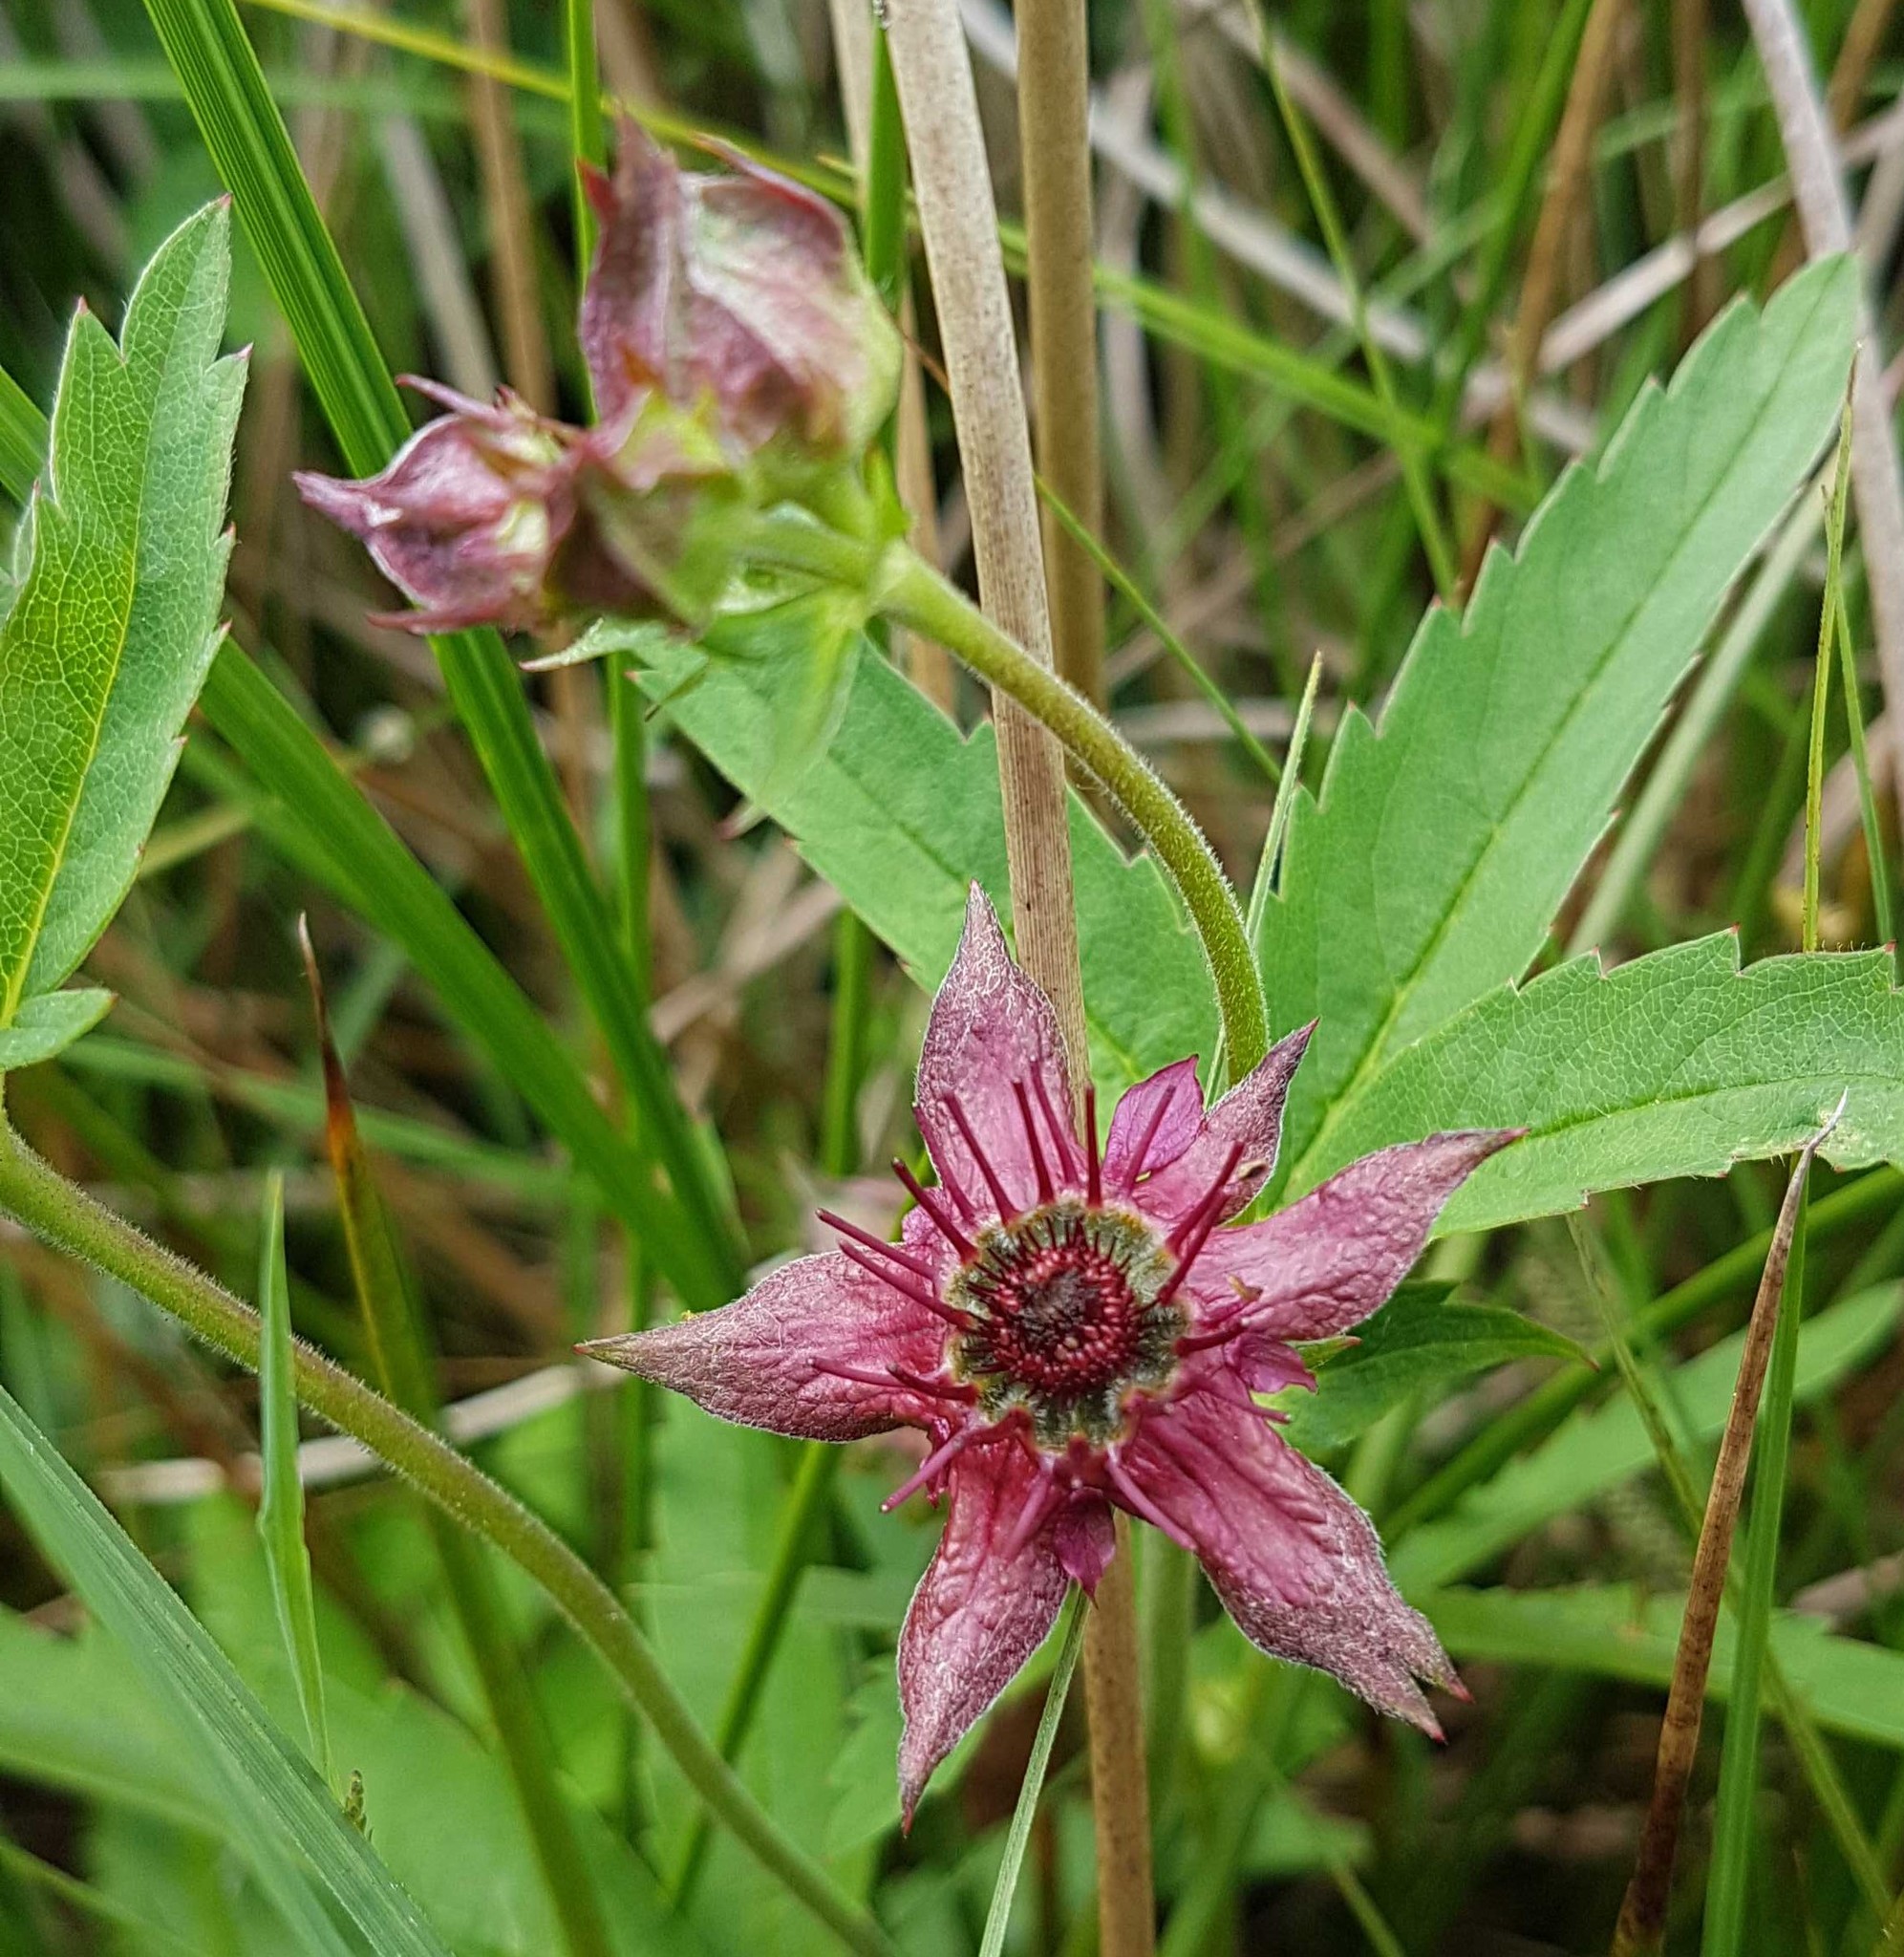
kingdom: Plantae
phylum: Tracheophyta
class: Magnoliopsida
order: Rosales
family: Rosaceae
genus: Comarum
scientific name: Comarum palustre
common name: Marsh cinquefoil
